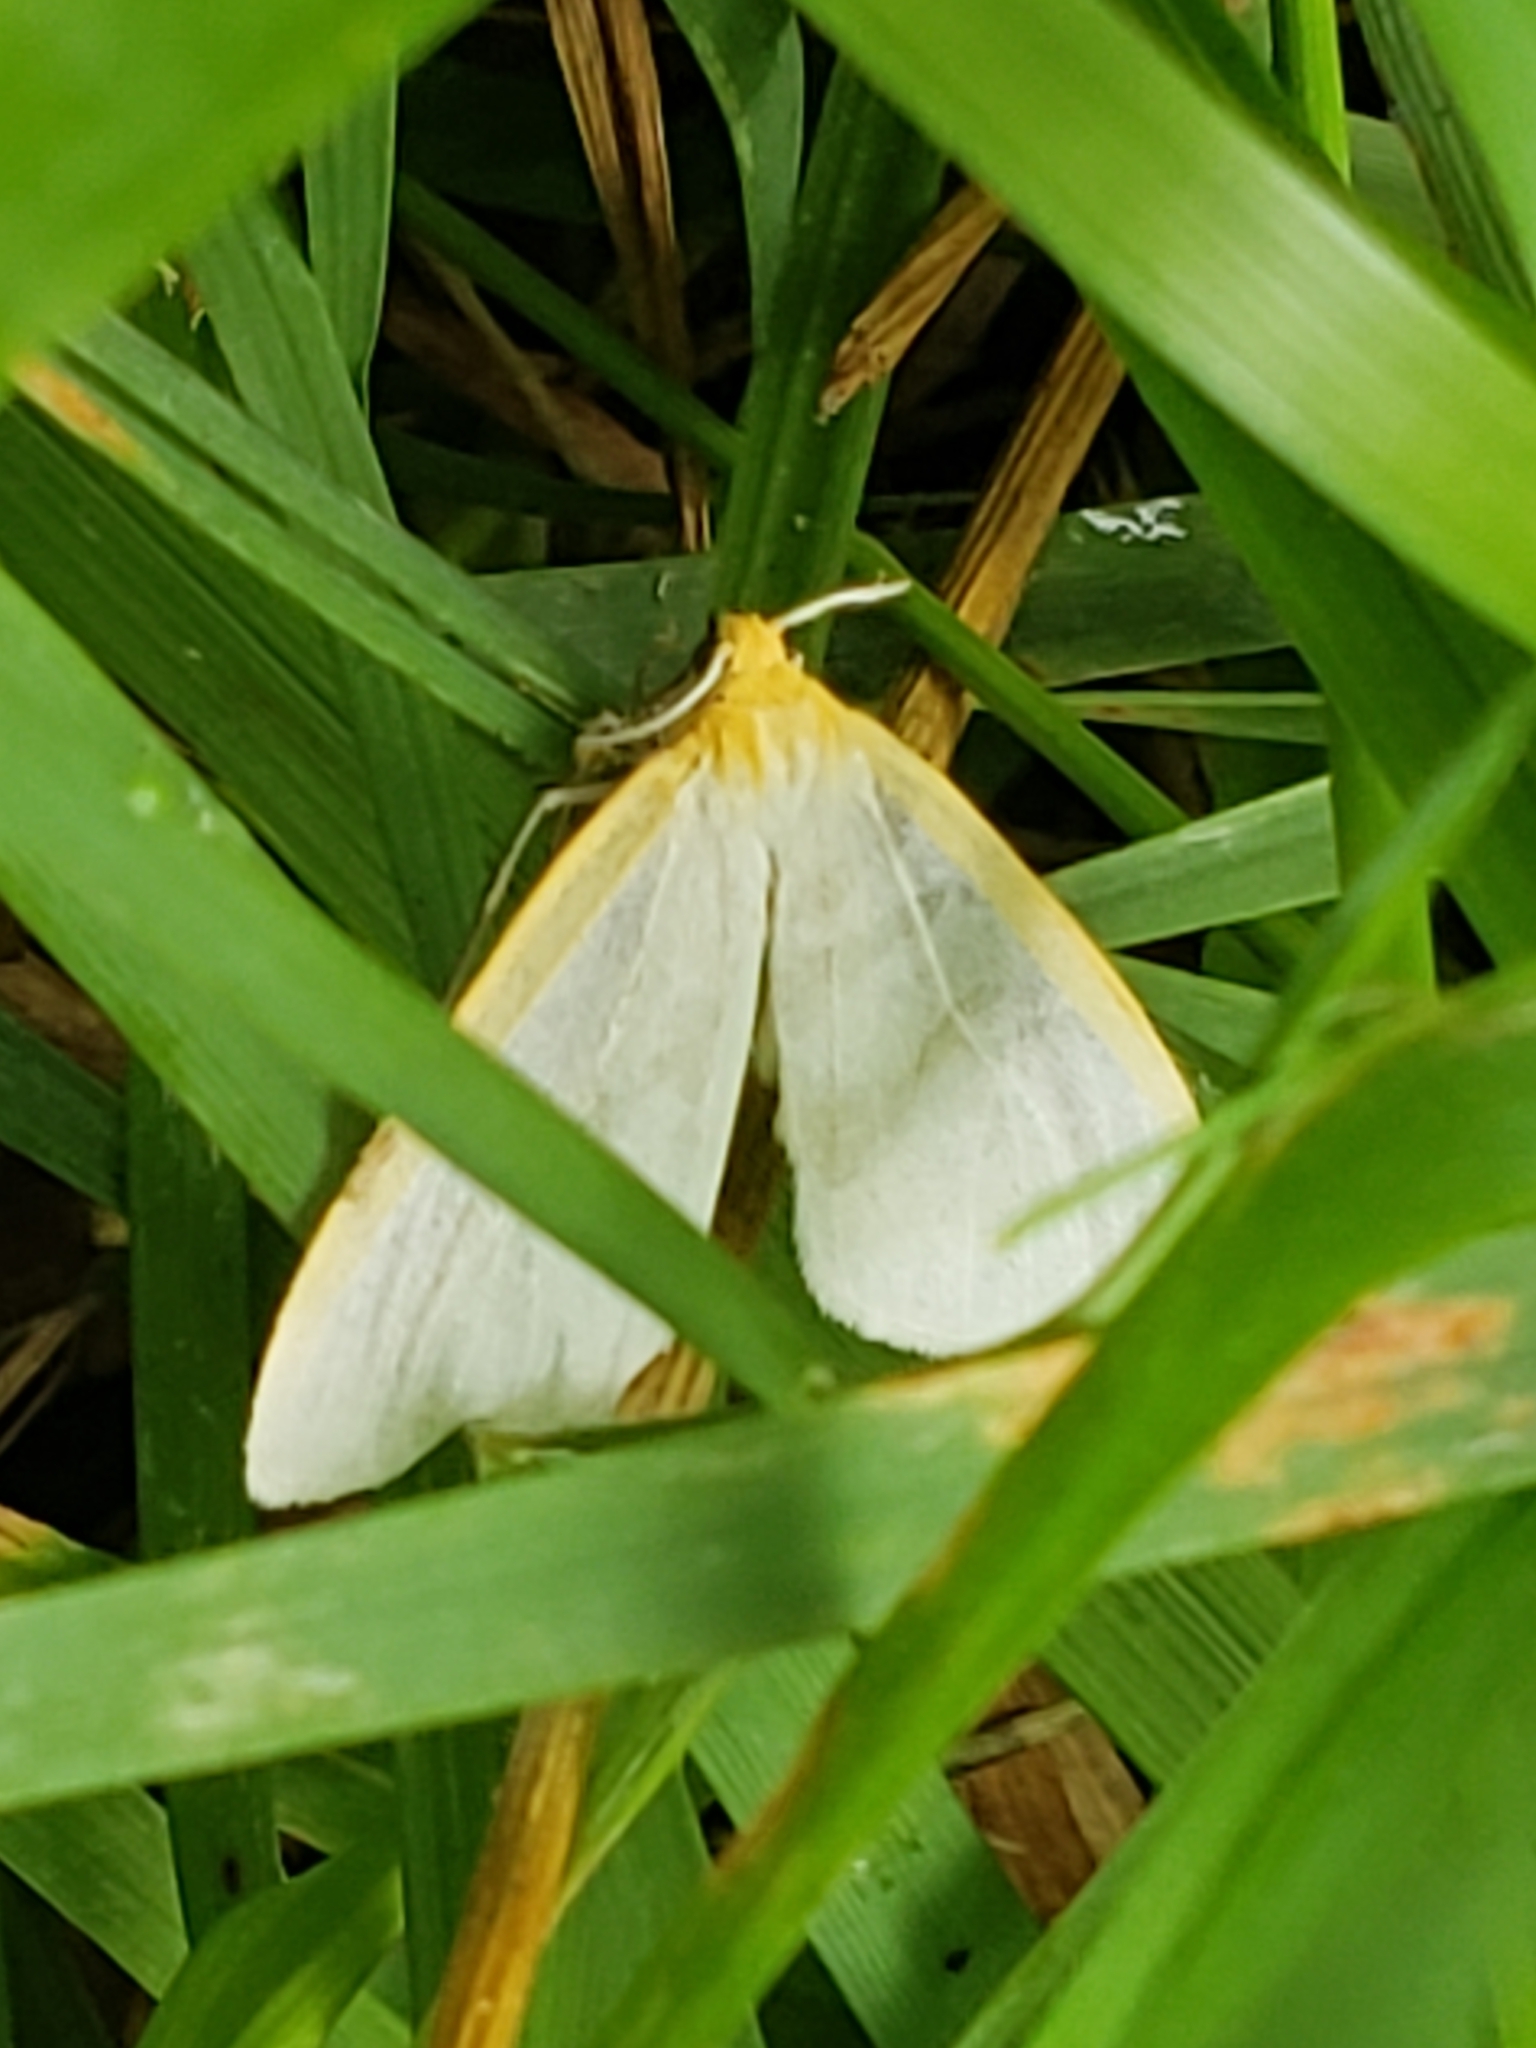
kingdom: Animalia
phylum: Arthropoda
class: Insecta
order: Lepidoptera
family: Erebidae
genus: Cycnia
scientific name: Cycnia tenera
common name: Delicate cycnia moth
